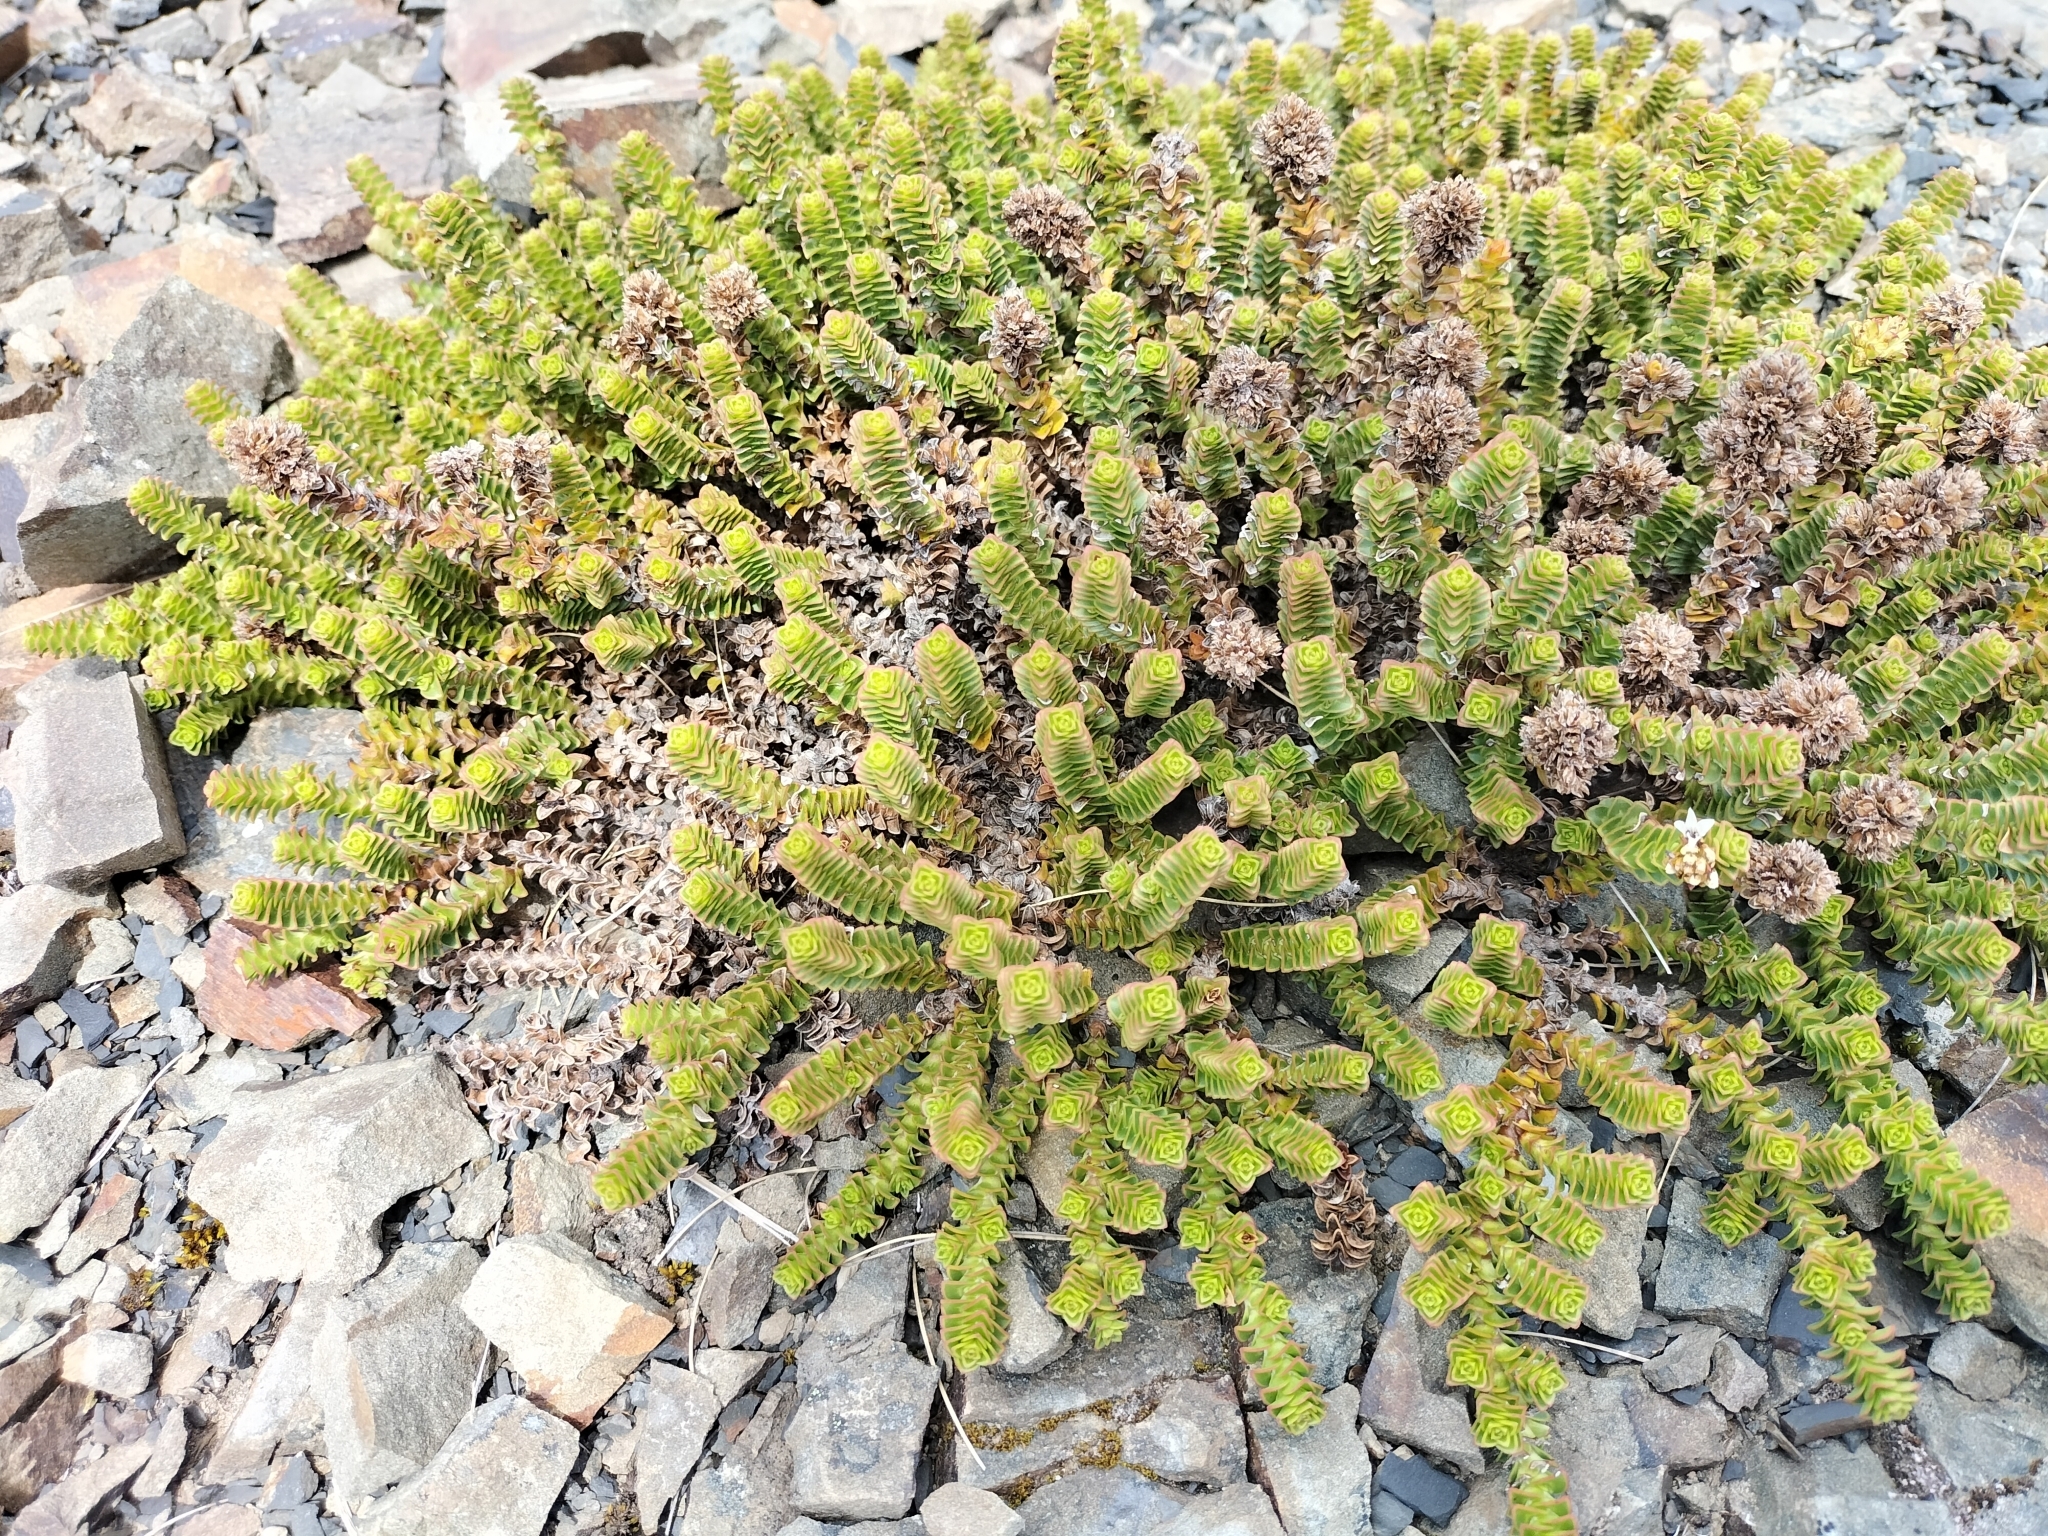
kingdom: Plantae
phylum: Tracheophyta
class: Magnoliopsida
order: Lamiales
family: Plantaginaceae
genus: Veronica
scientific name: Veronica epacridea
